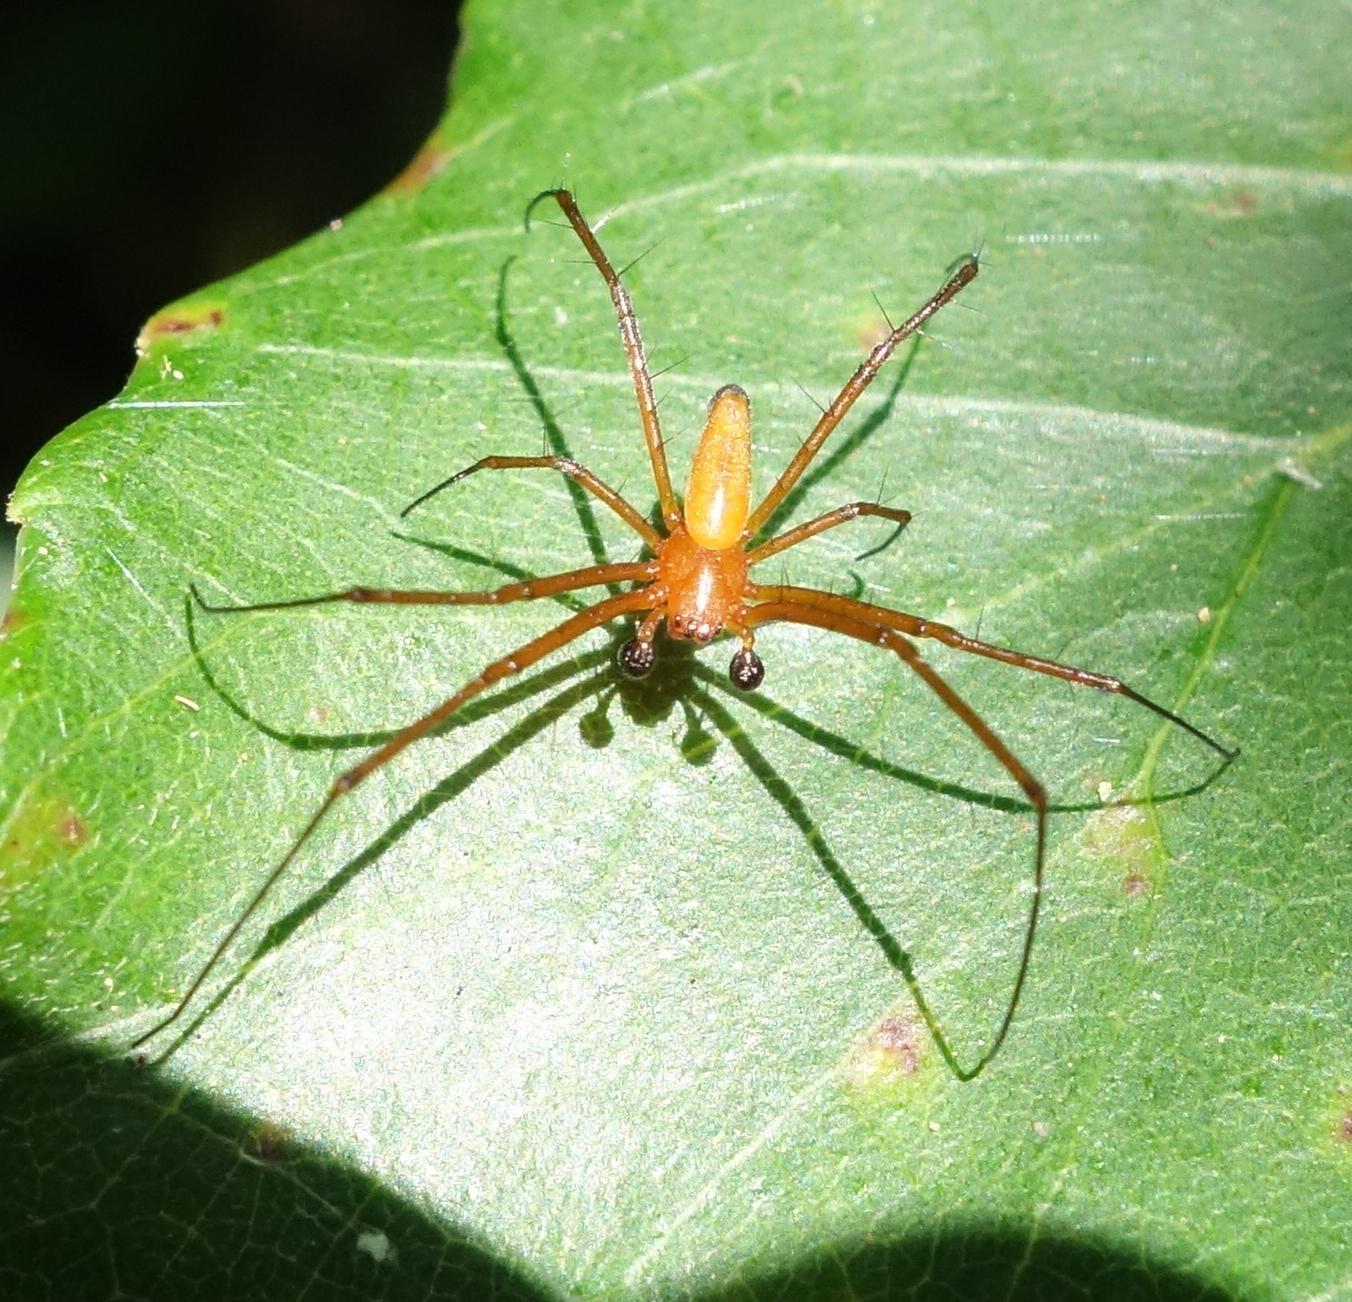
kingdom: Animalia
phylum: Arthropoda
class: Arachnida
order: Araneae
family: Araneidae
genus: Nephila
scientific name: Nephila pilipes
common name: Giant golden orb weaver
